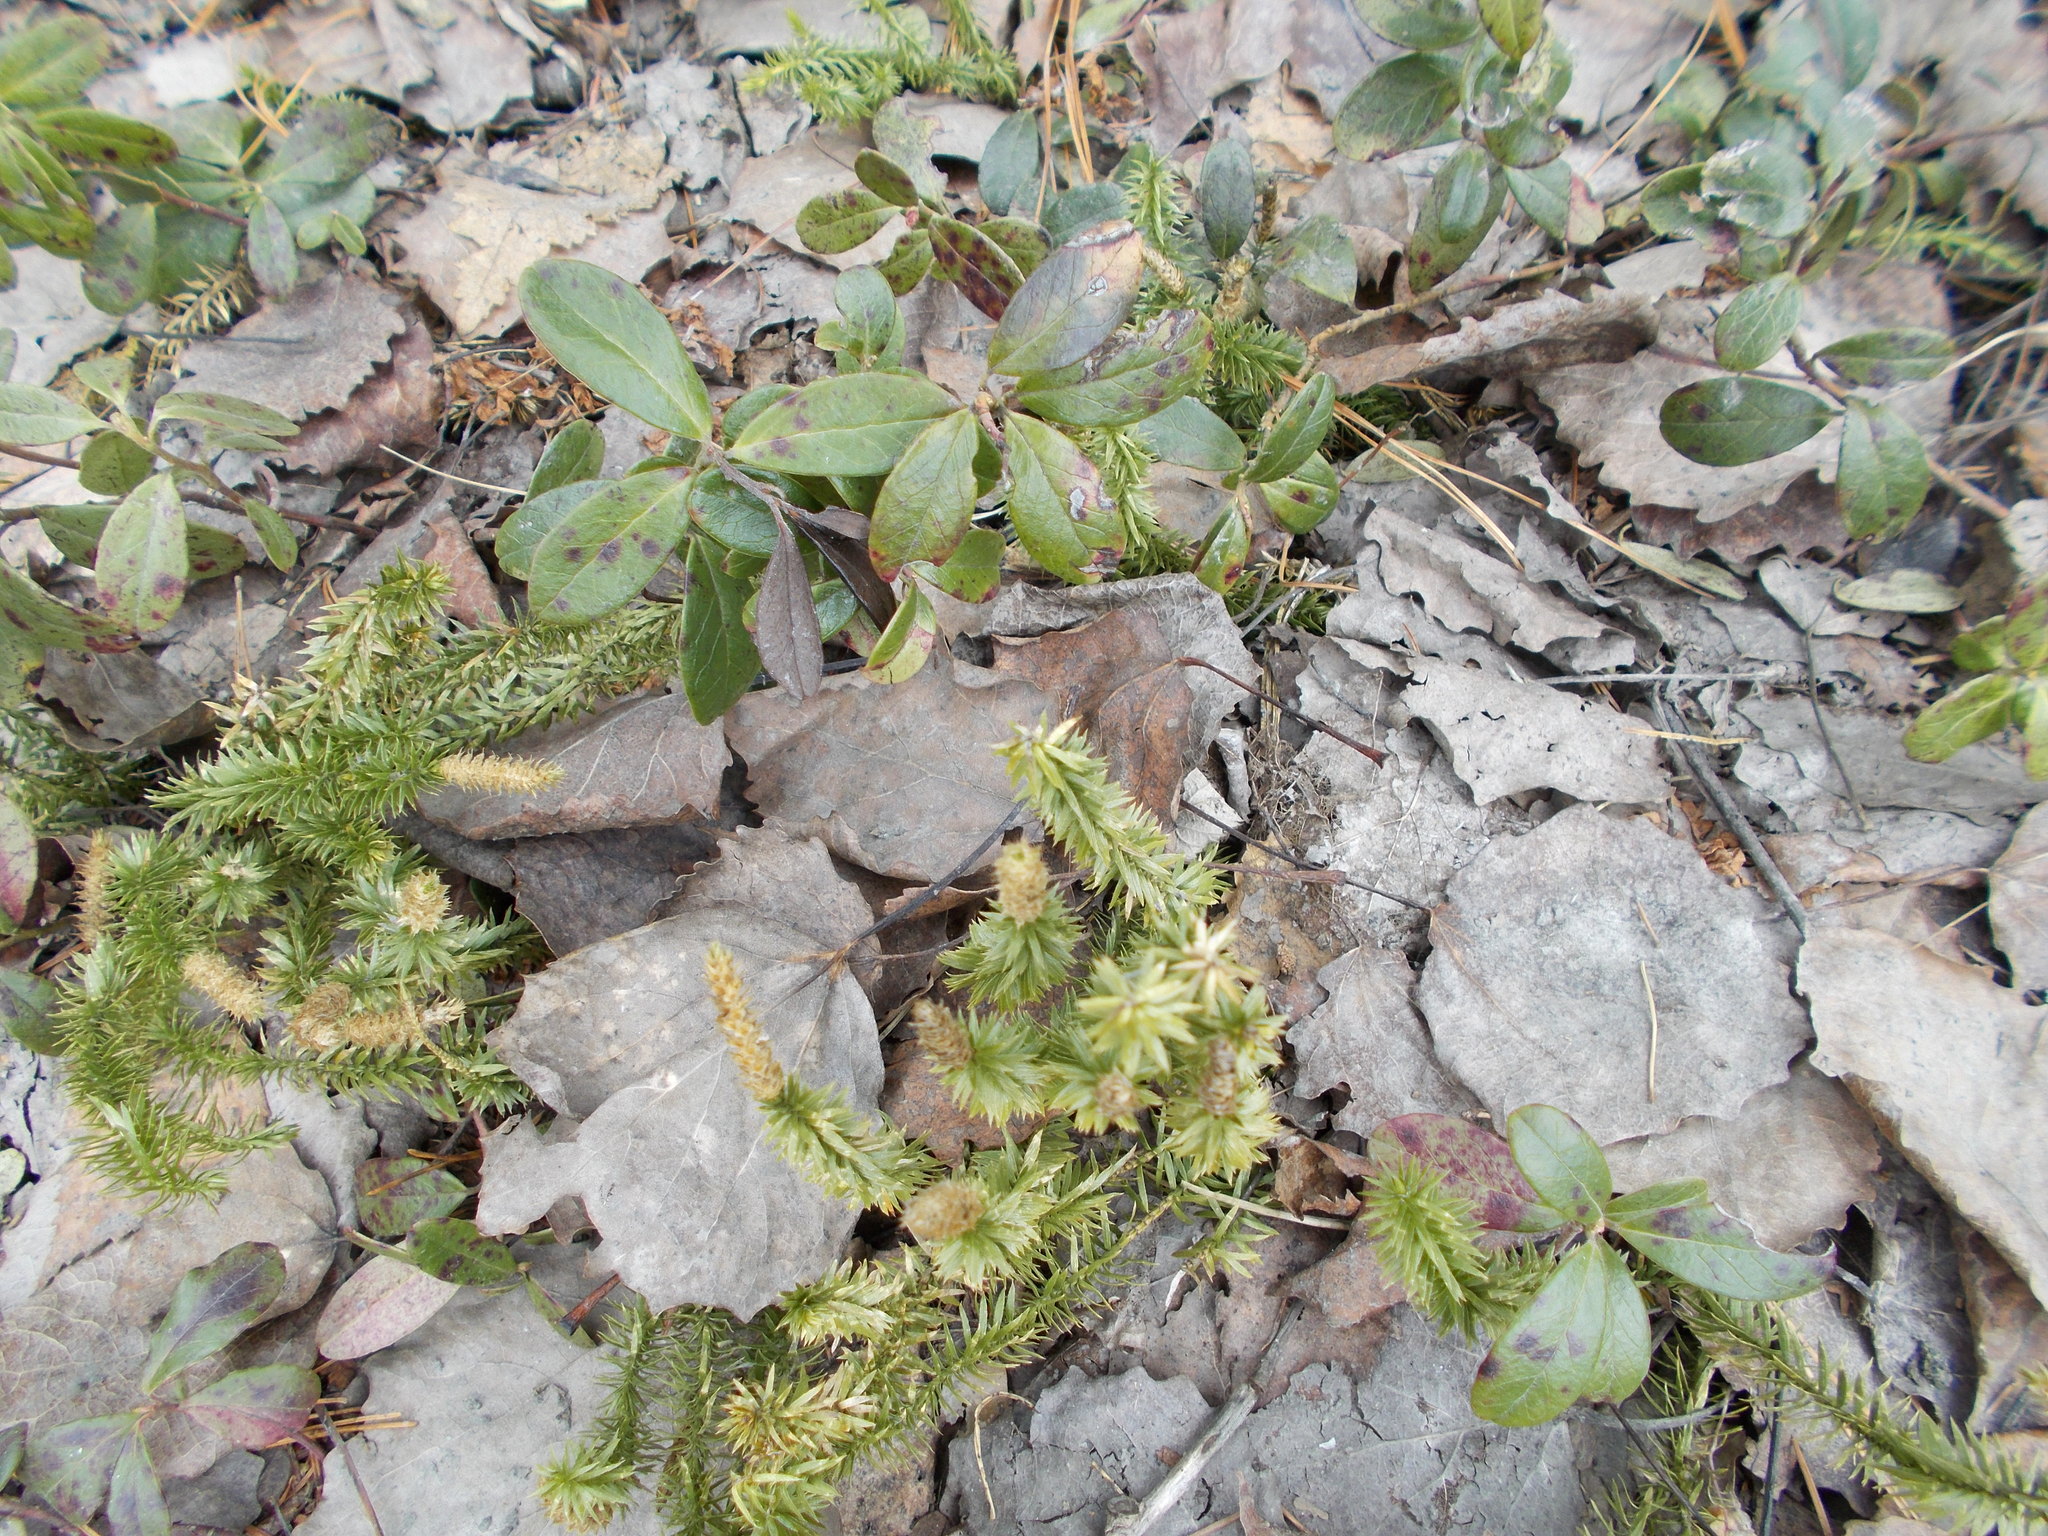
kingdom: Plantae
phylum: Tracheophyta
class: Lycopodiopsida
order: Lycopodiales
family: Lycopodiaceae
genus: Spinulum
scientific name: Spinulum annotinum
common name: Interrupted club-moss
